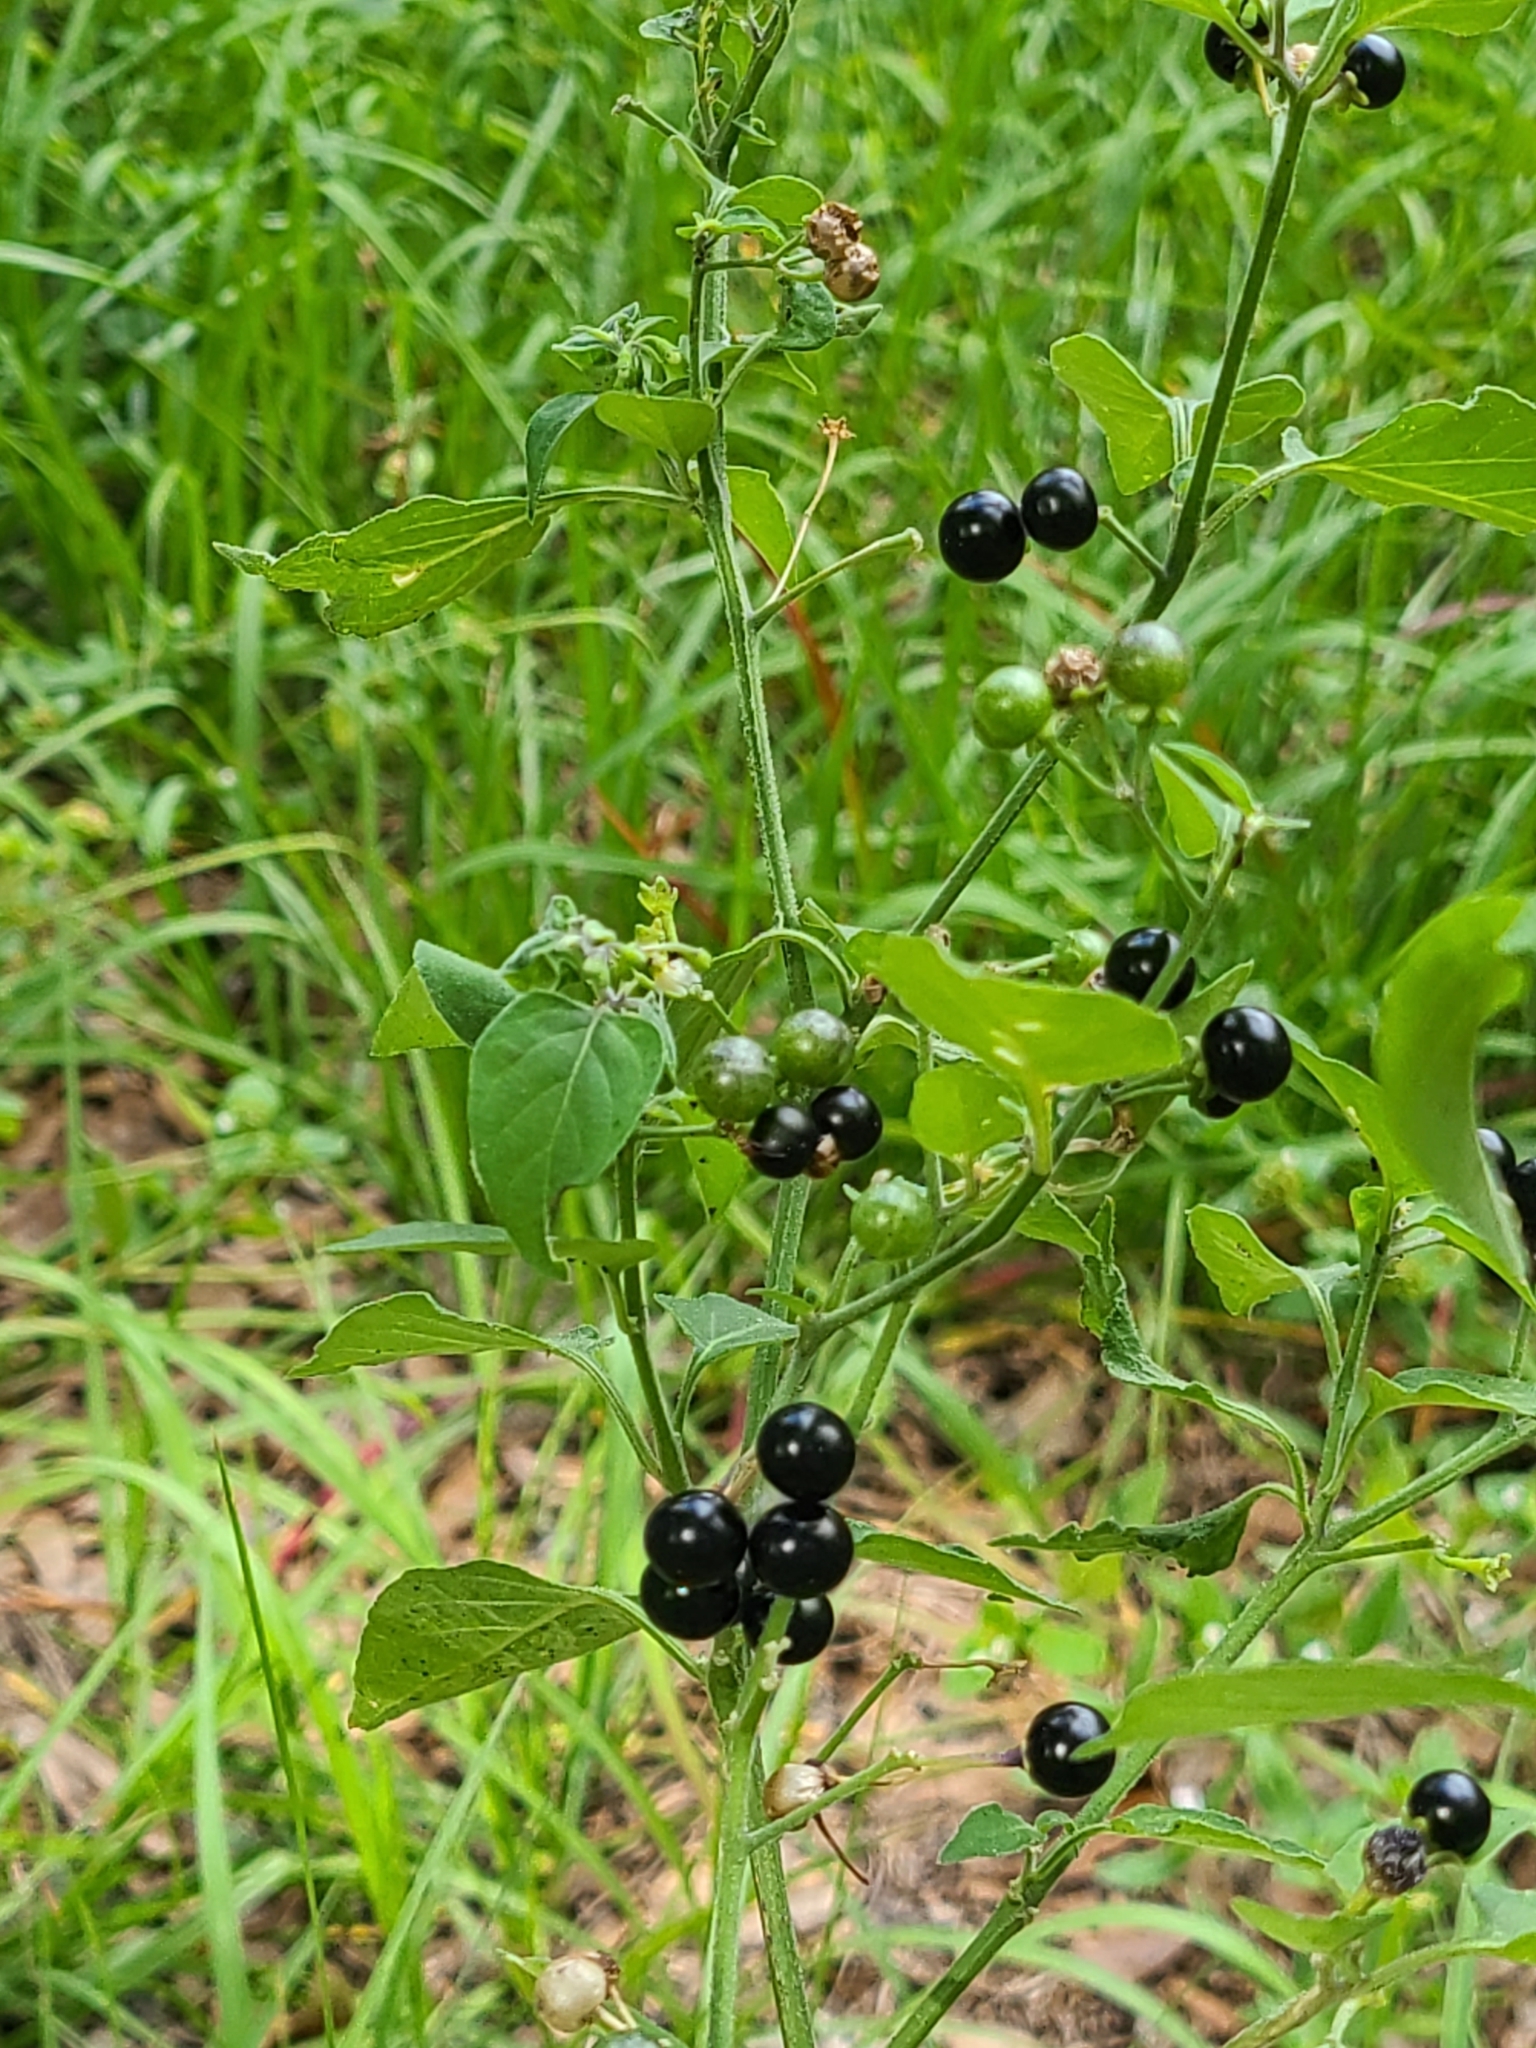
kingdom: Plantae
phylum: Tracheophyta
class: Magnoliopsida
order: Solanales
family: Solanaceae
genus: Solanum
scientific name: Solanum americanum
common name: American black nightshade
